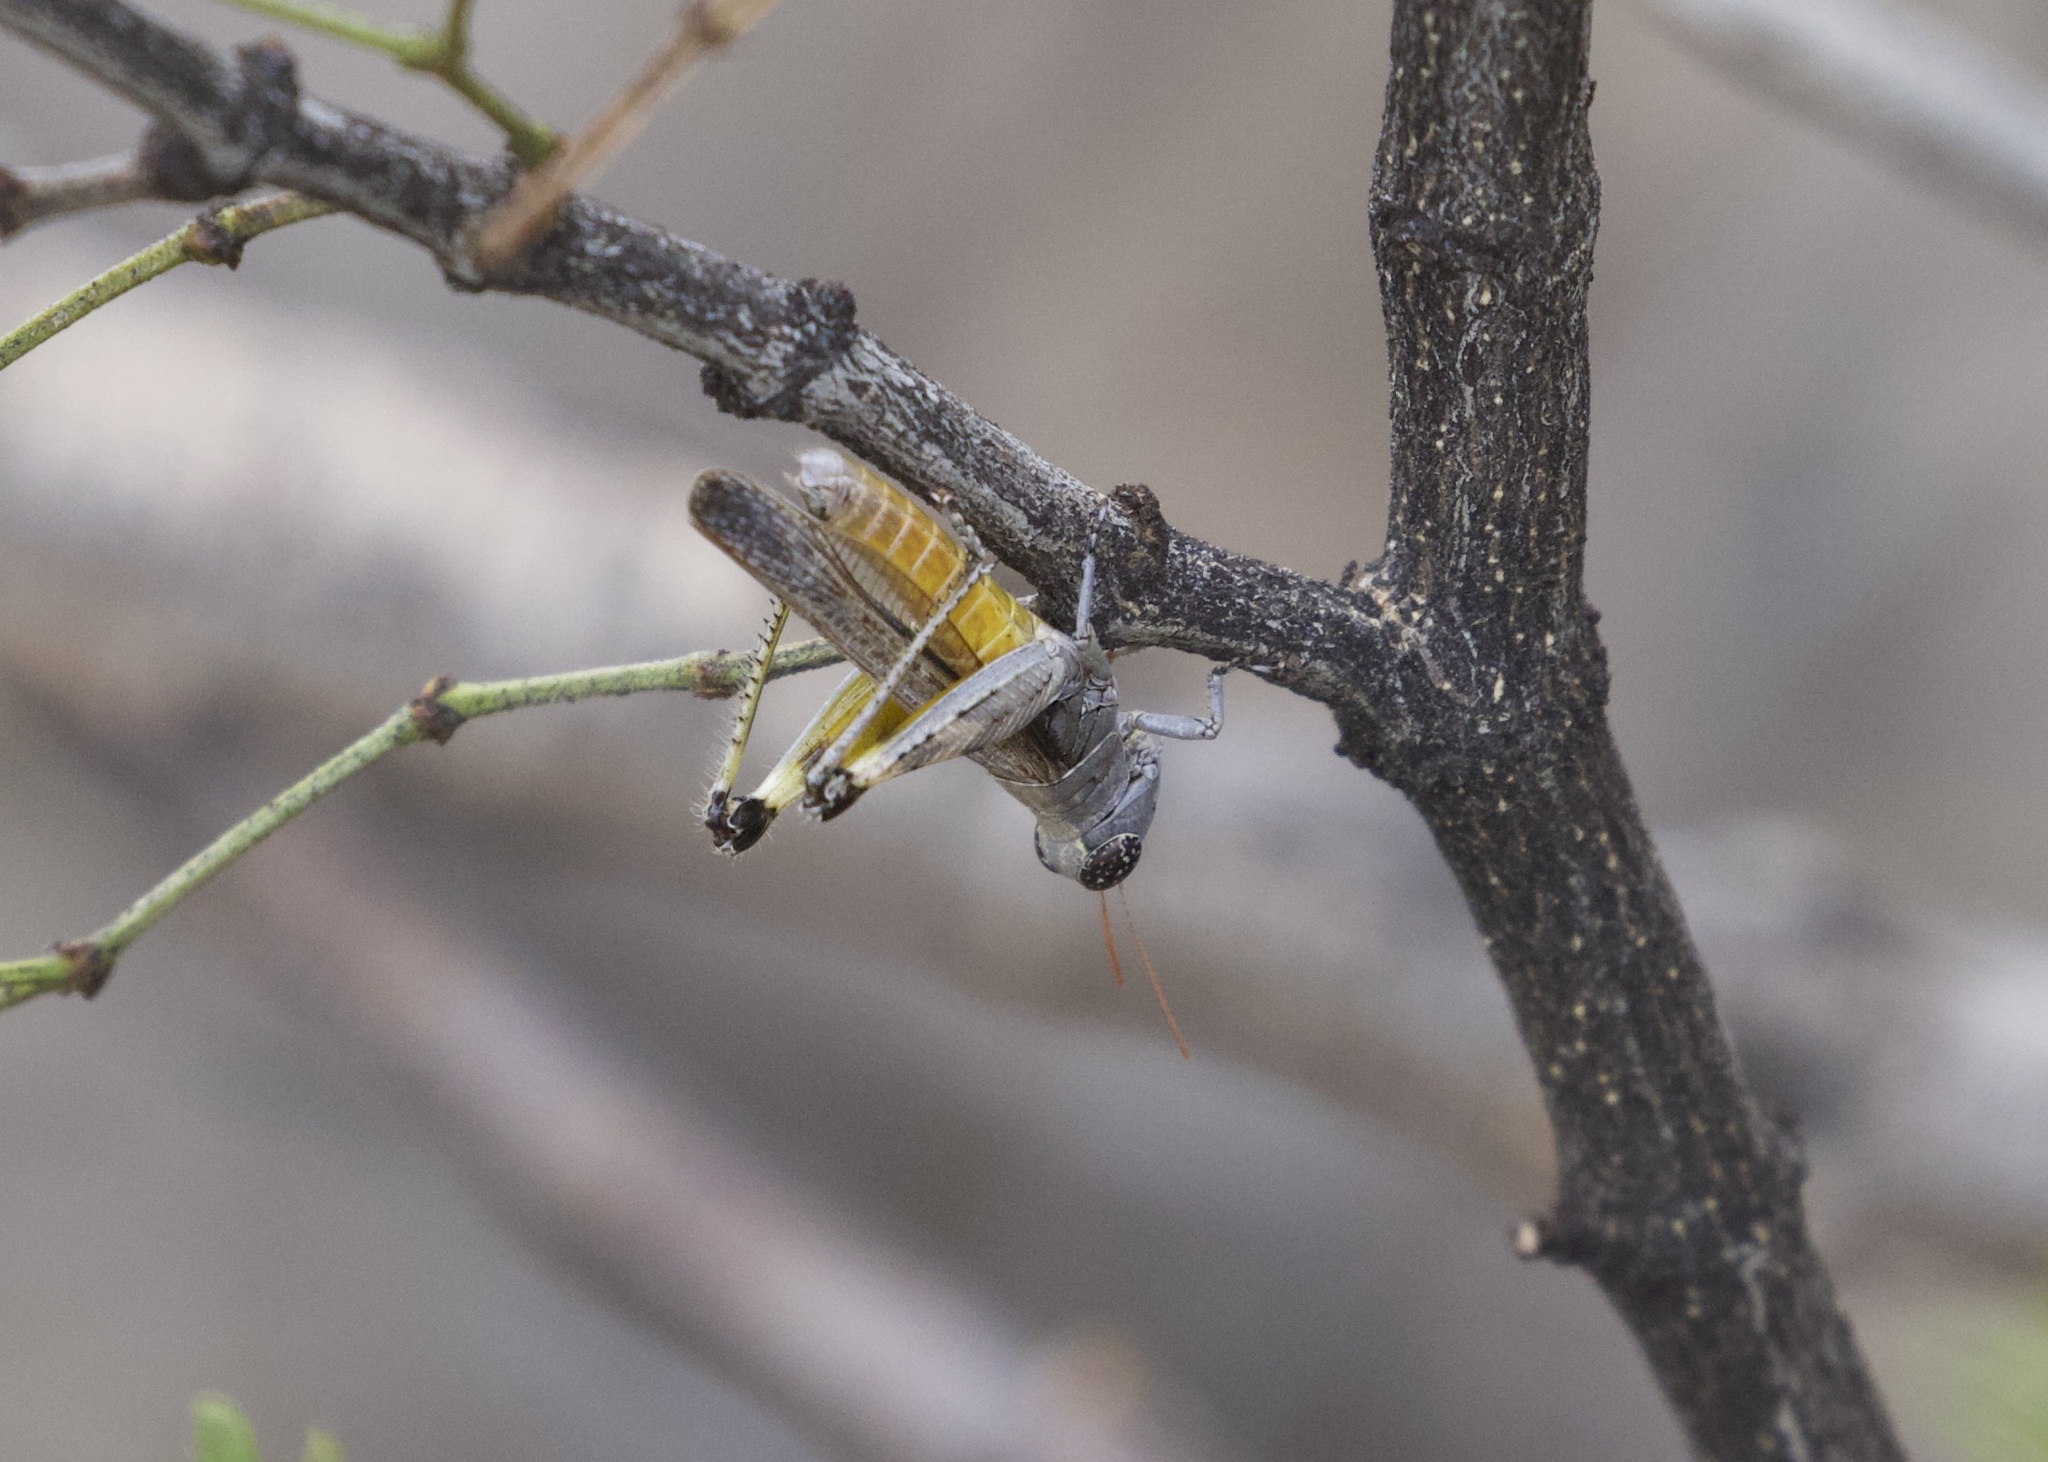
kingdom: Animalia
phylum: Arthropoda
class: Insecta
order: Orthoptera
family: Acrididae
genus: Ligurotettix
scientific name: Ligurotettix coquilletti
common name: Desert clicker grasshopper
